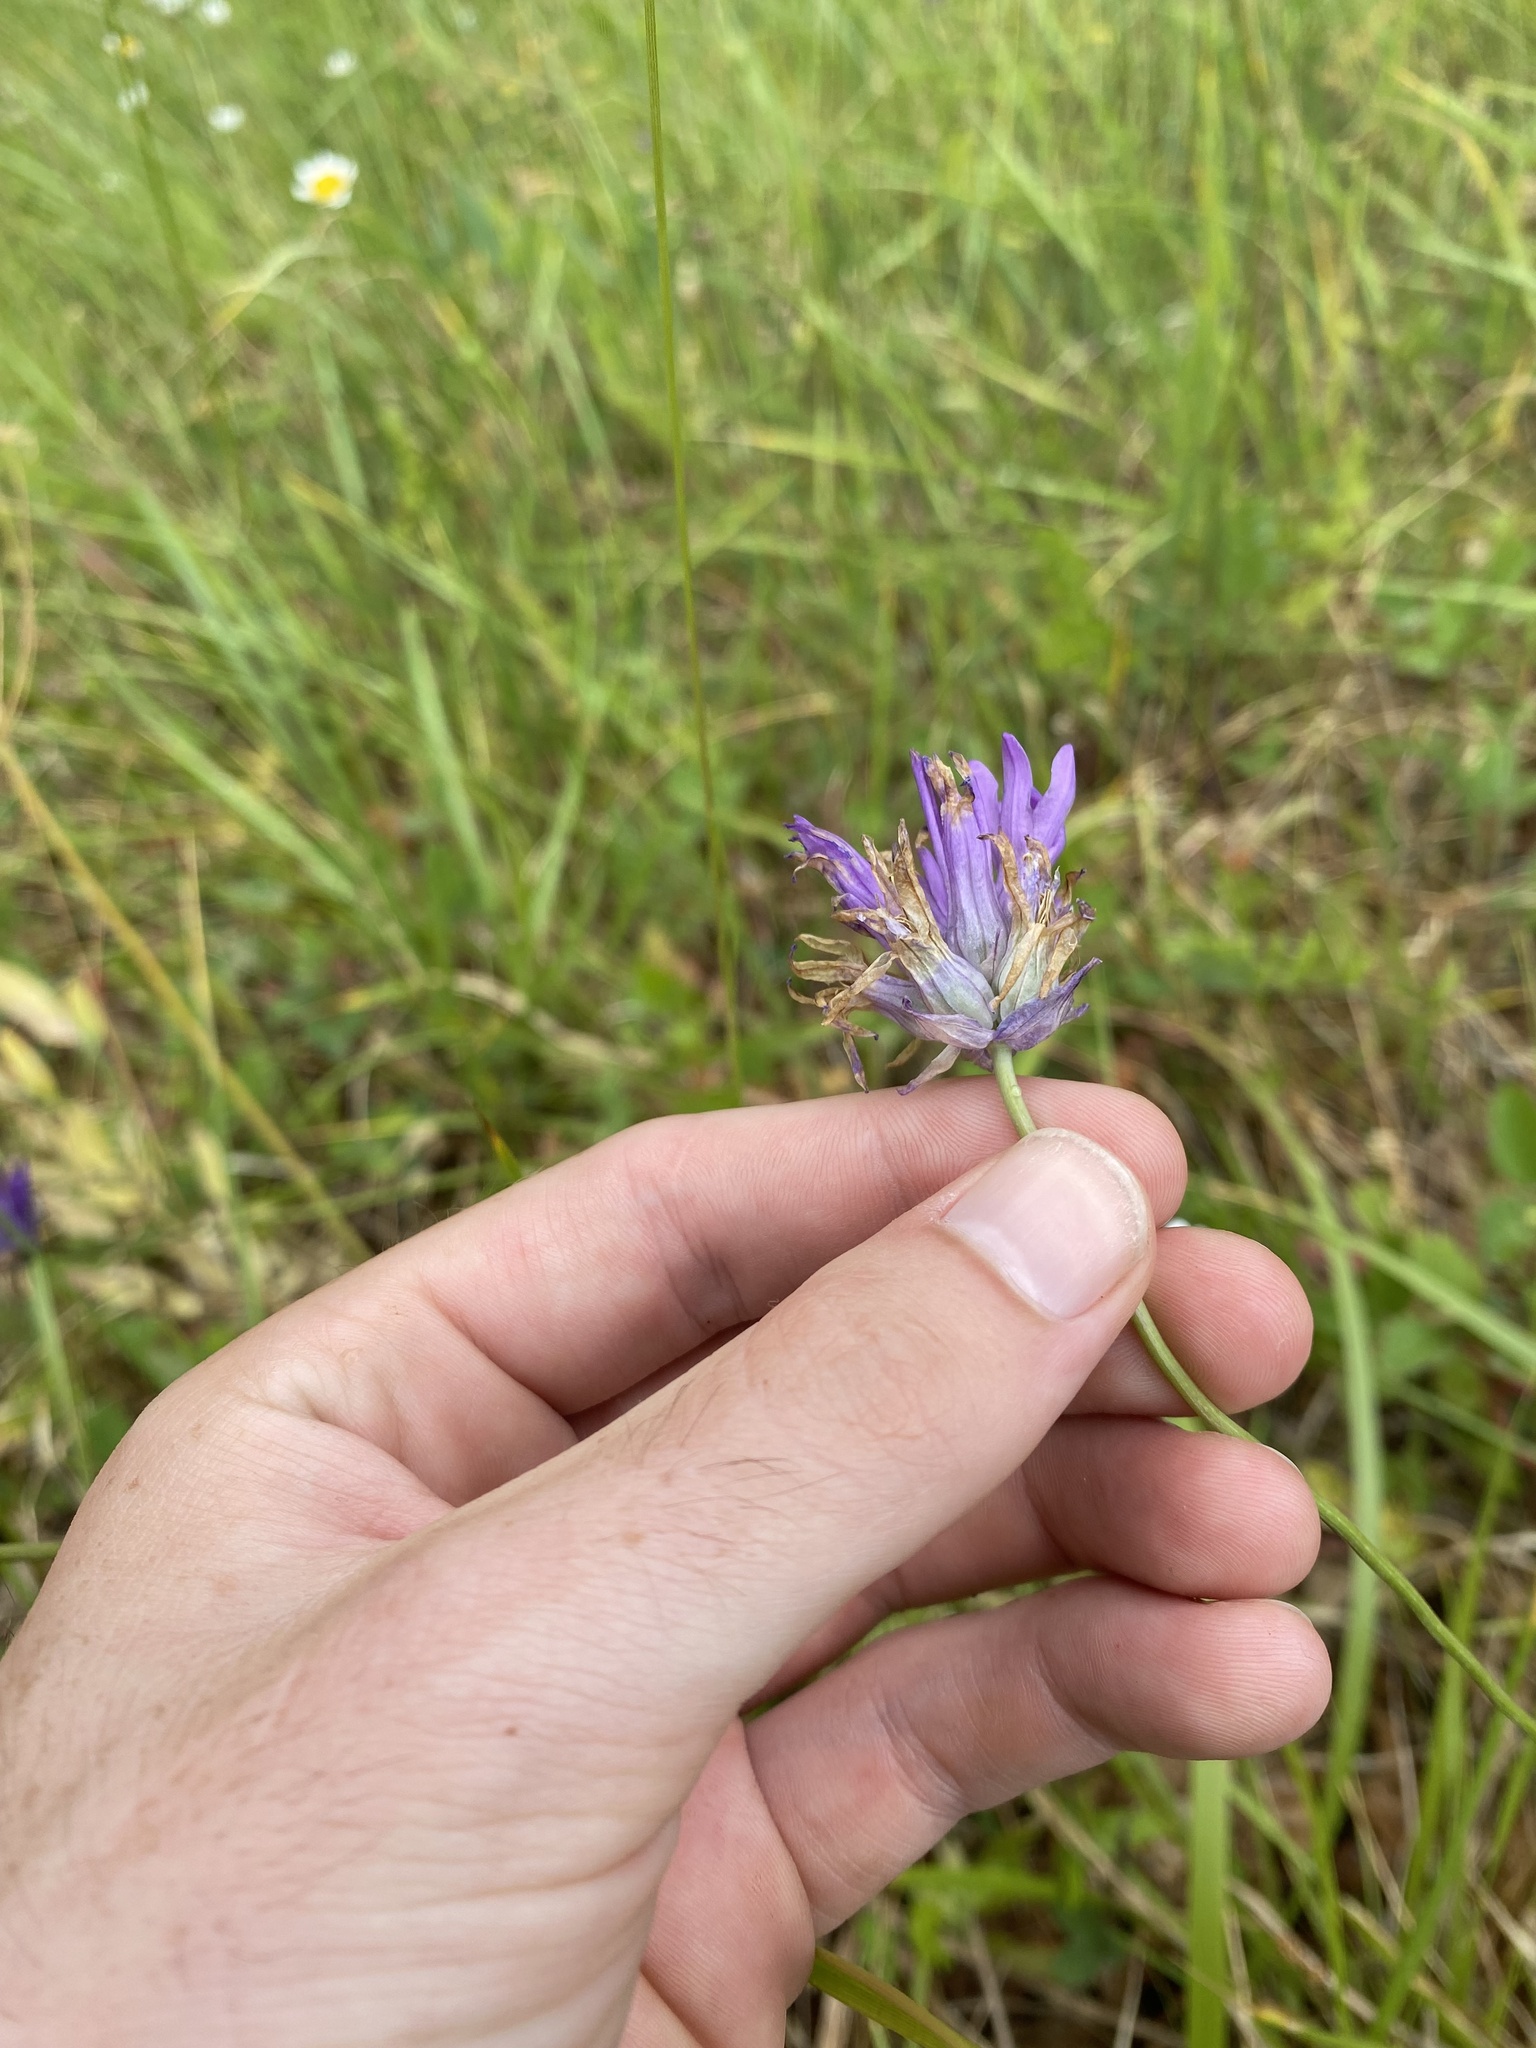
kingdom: Plantae
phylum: Tracheophyta
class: Liliopsida
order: Asparagales
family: Asparagaceae
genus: Dichelostemma
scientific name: Dichelostemma congestum
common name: Fork-tooth ookow
